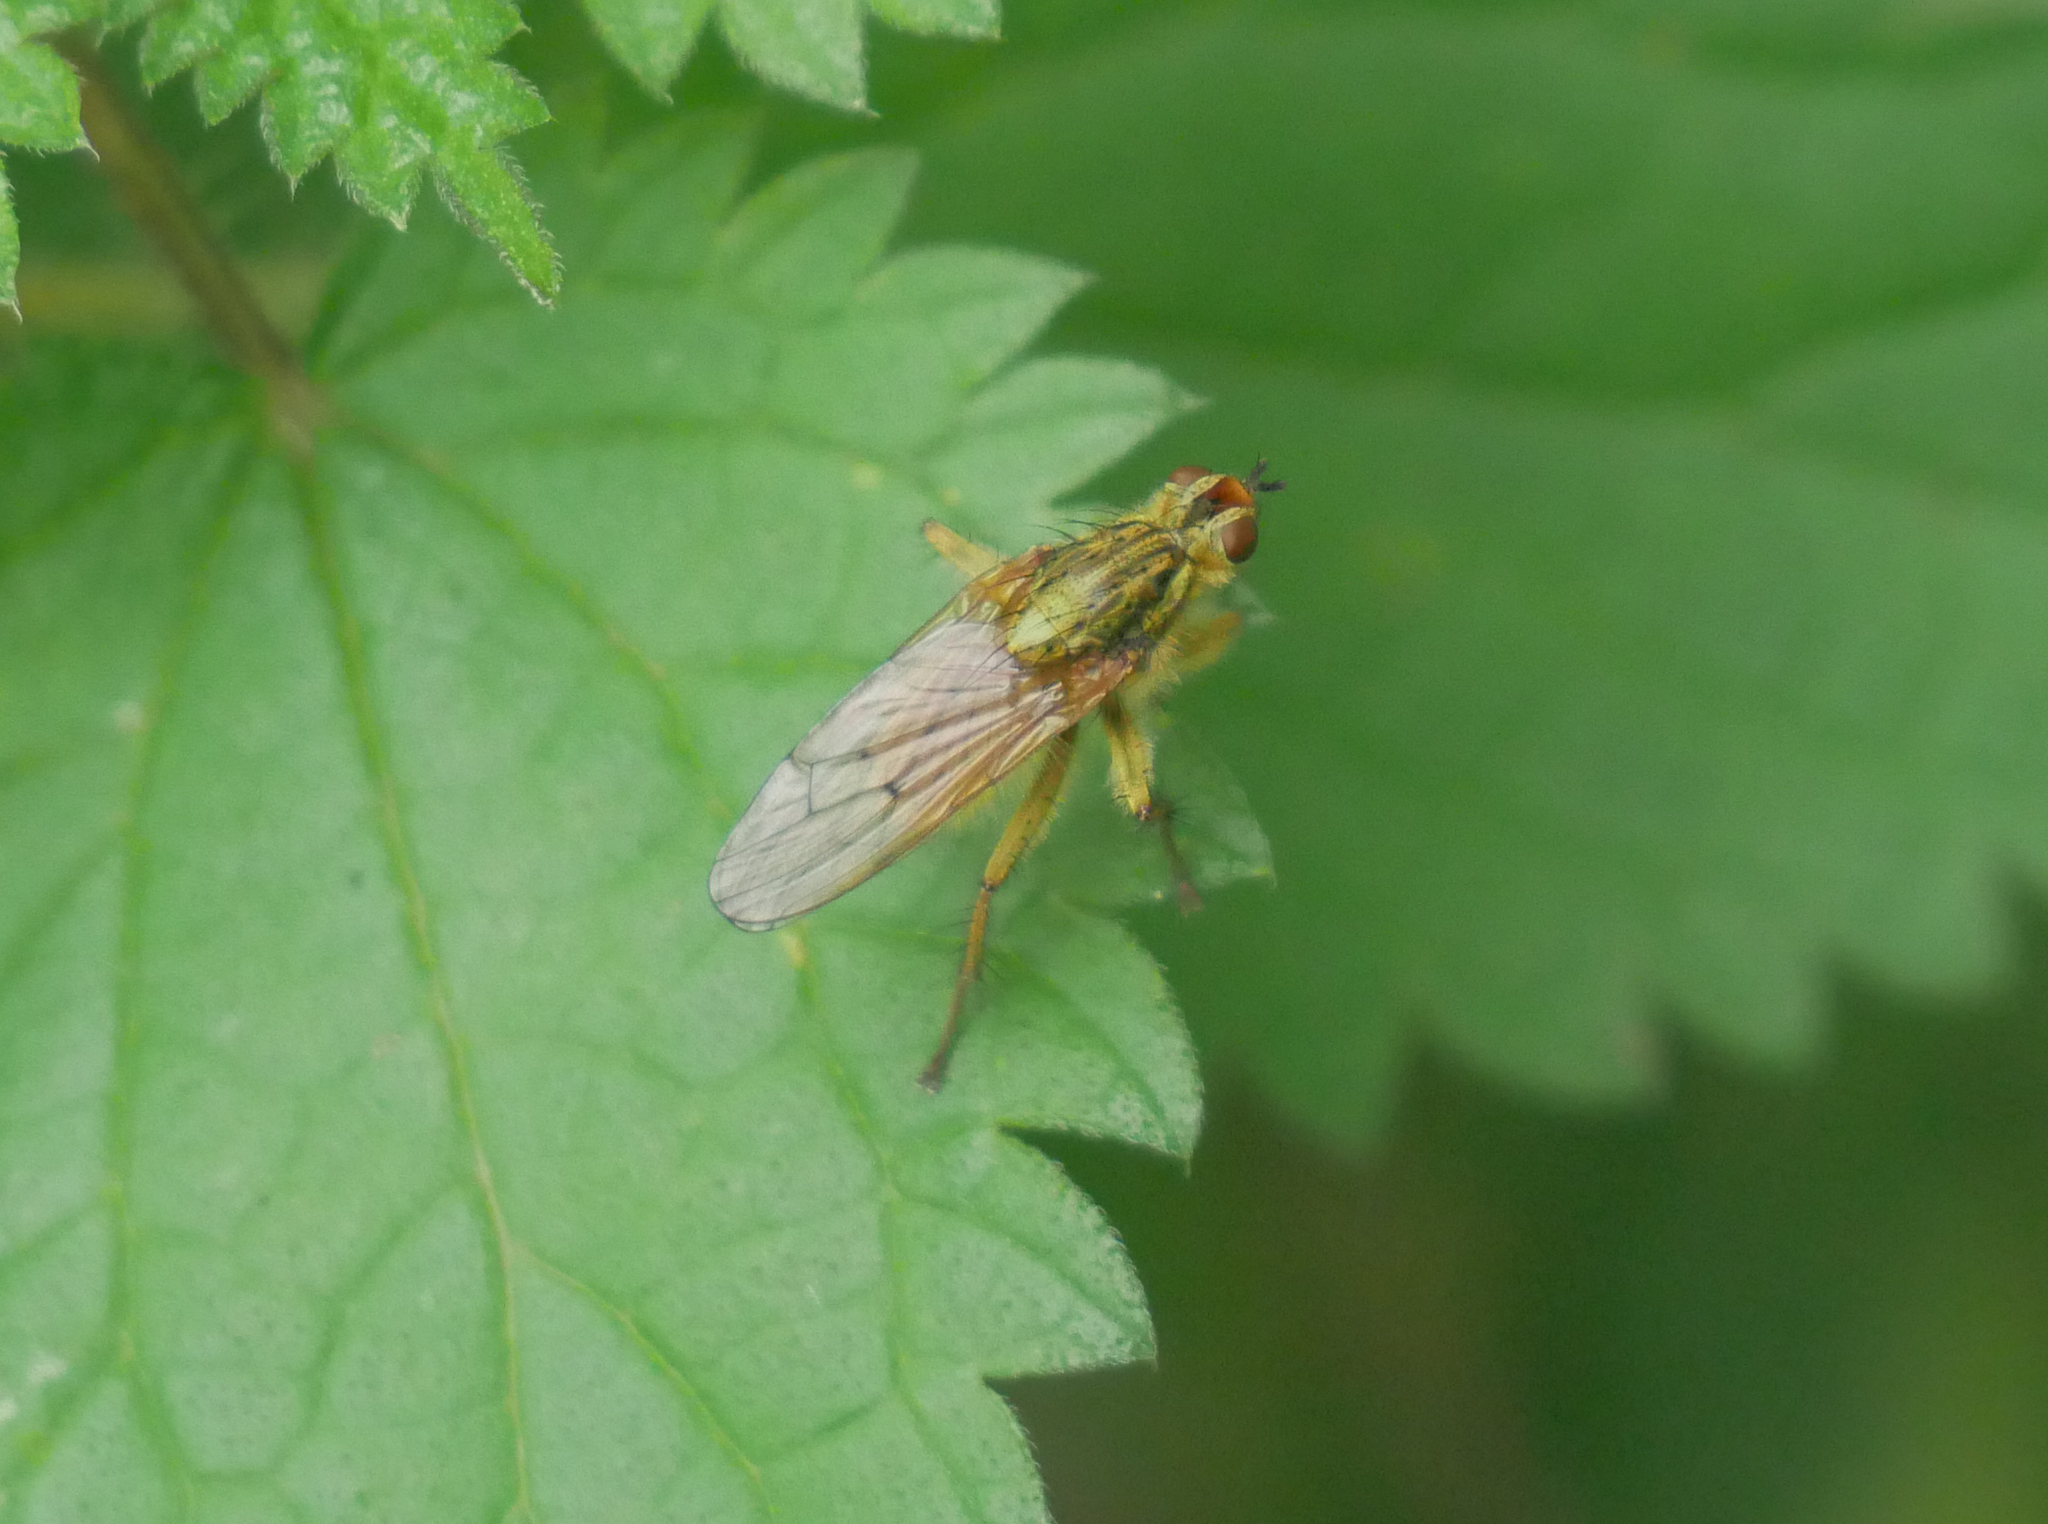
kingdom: Animalia
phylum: Arthropoda
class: Insecta
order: Diptera
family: Scathophagidae
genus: Scathophaga
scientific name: Scathophaga stercoraria
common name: Yellow dung fly
